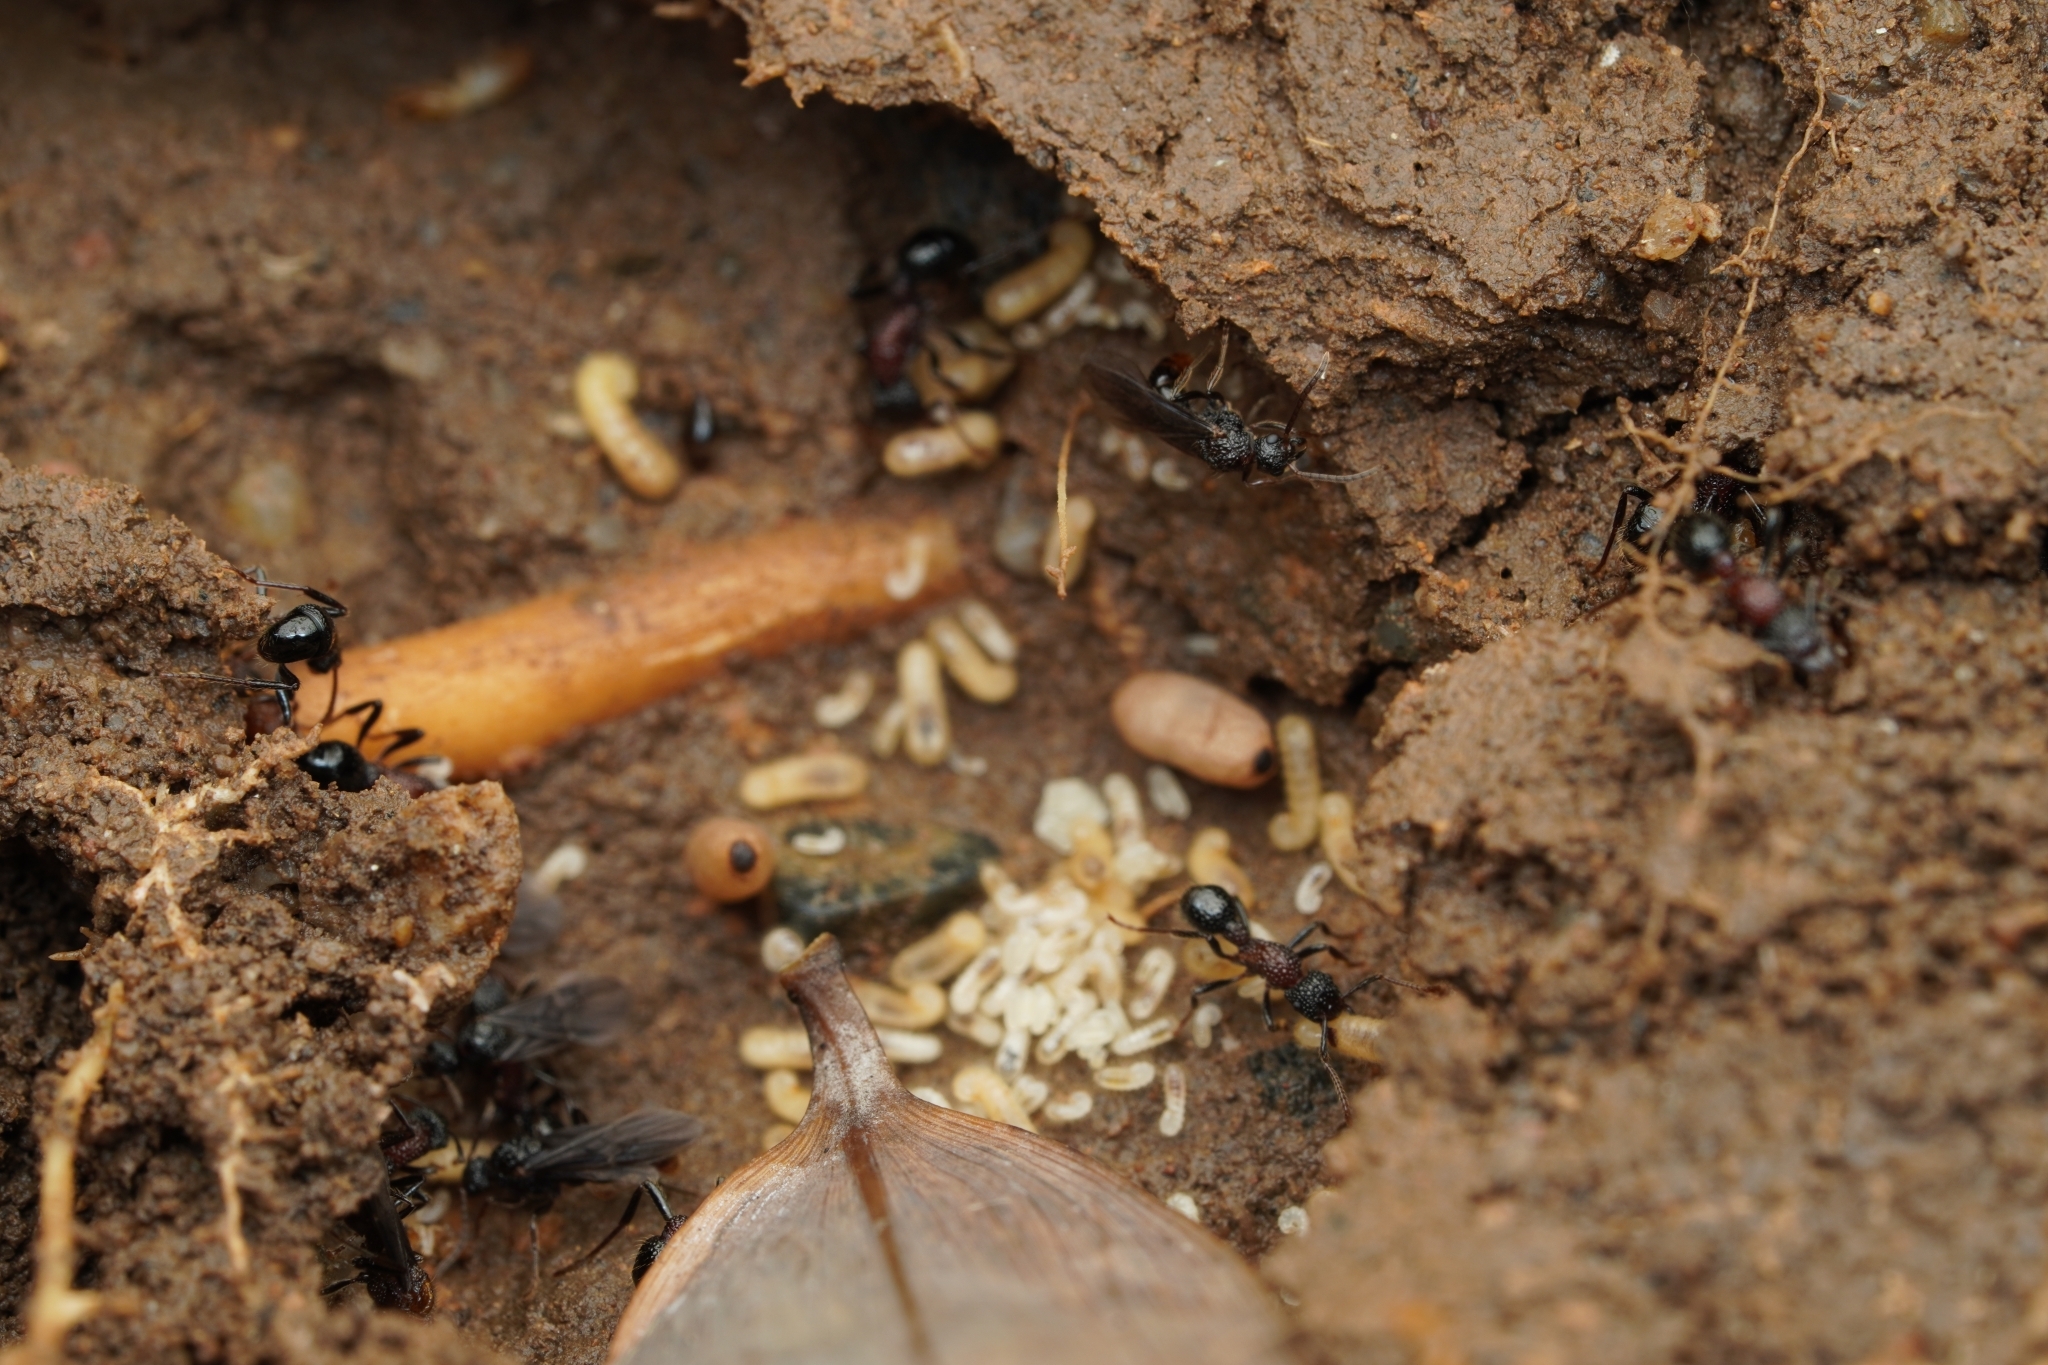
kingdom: Animalia
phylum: Arthropoda
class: Insecta
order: Hymenoptera
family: Formicidae
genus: Stictoponera
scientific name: Stictoponera bicolor
